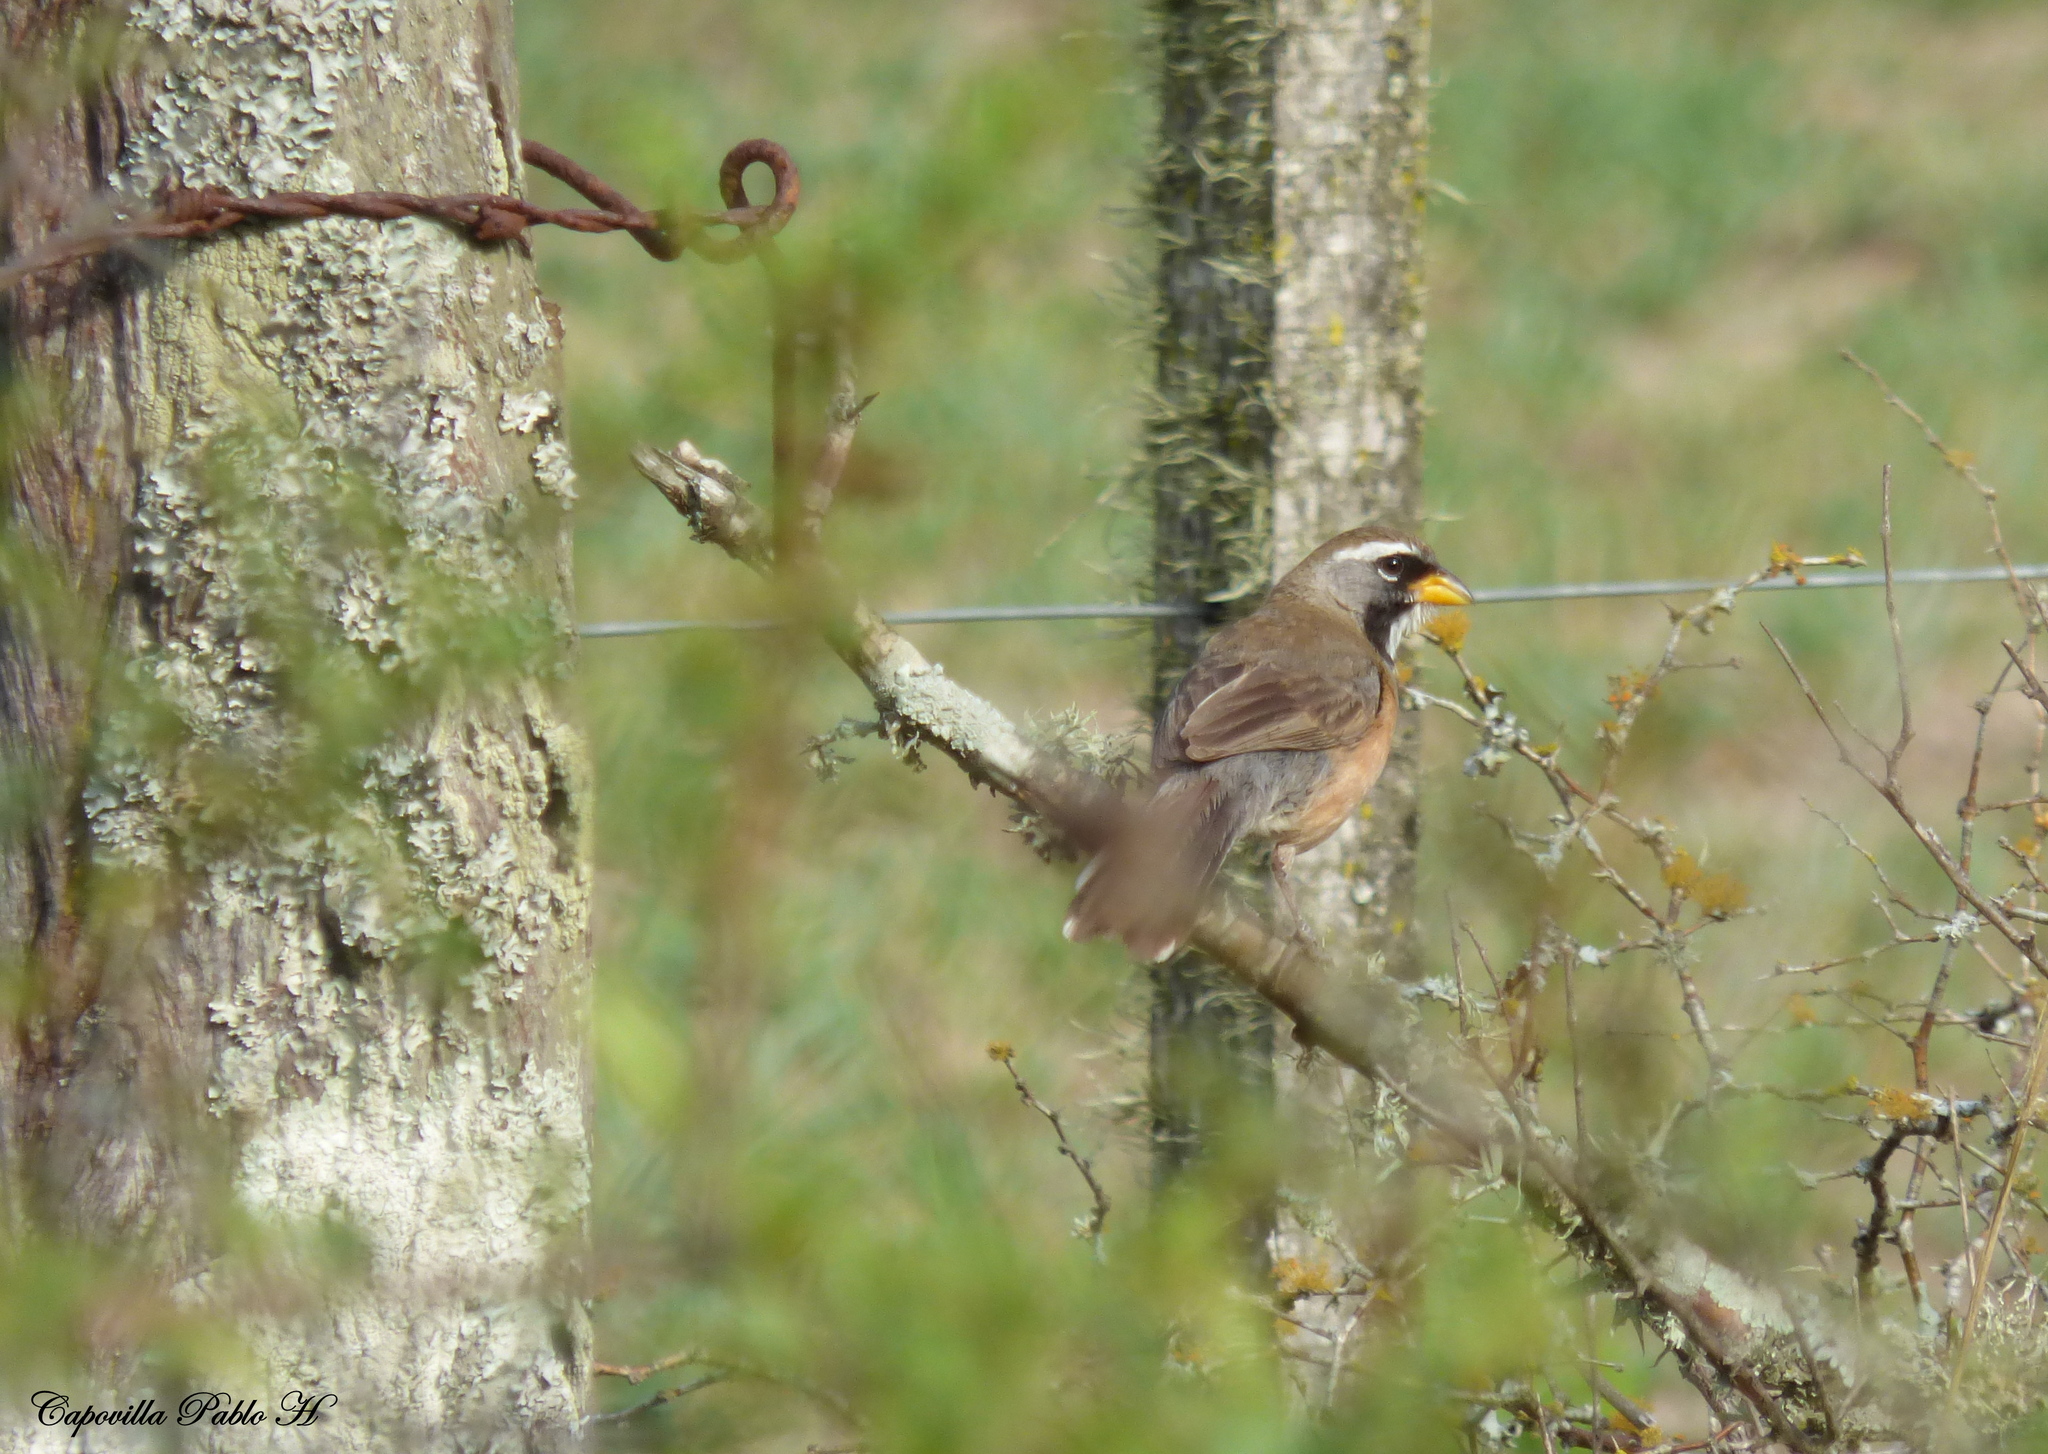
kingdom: Animalia
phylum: Chordata
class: Aves
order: Passeriformes
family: Thraupidae
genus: Saltatricula
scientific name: Saltatricula multicolor
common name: Many-colored chaco finch
